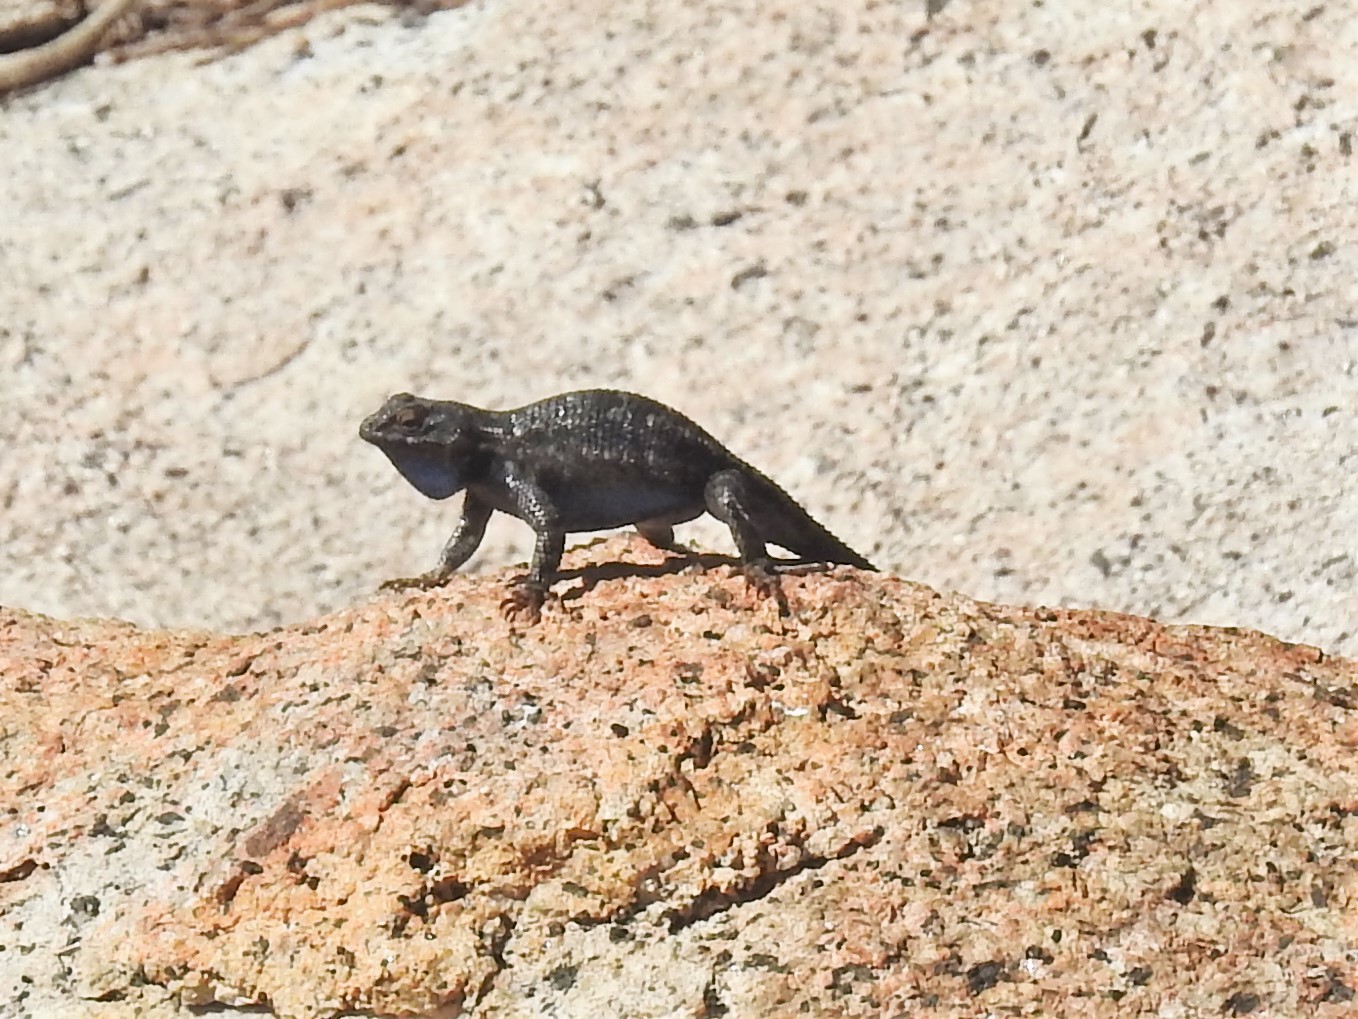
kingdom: Animalia
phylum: Chordata
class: Squamata
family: Phrynosomatidae
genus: Sceloporus
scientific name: Sceloporus occidentalis
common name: Western fence lizard
